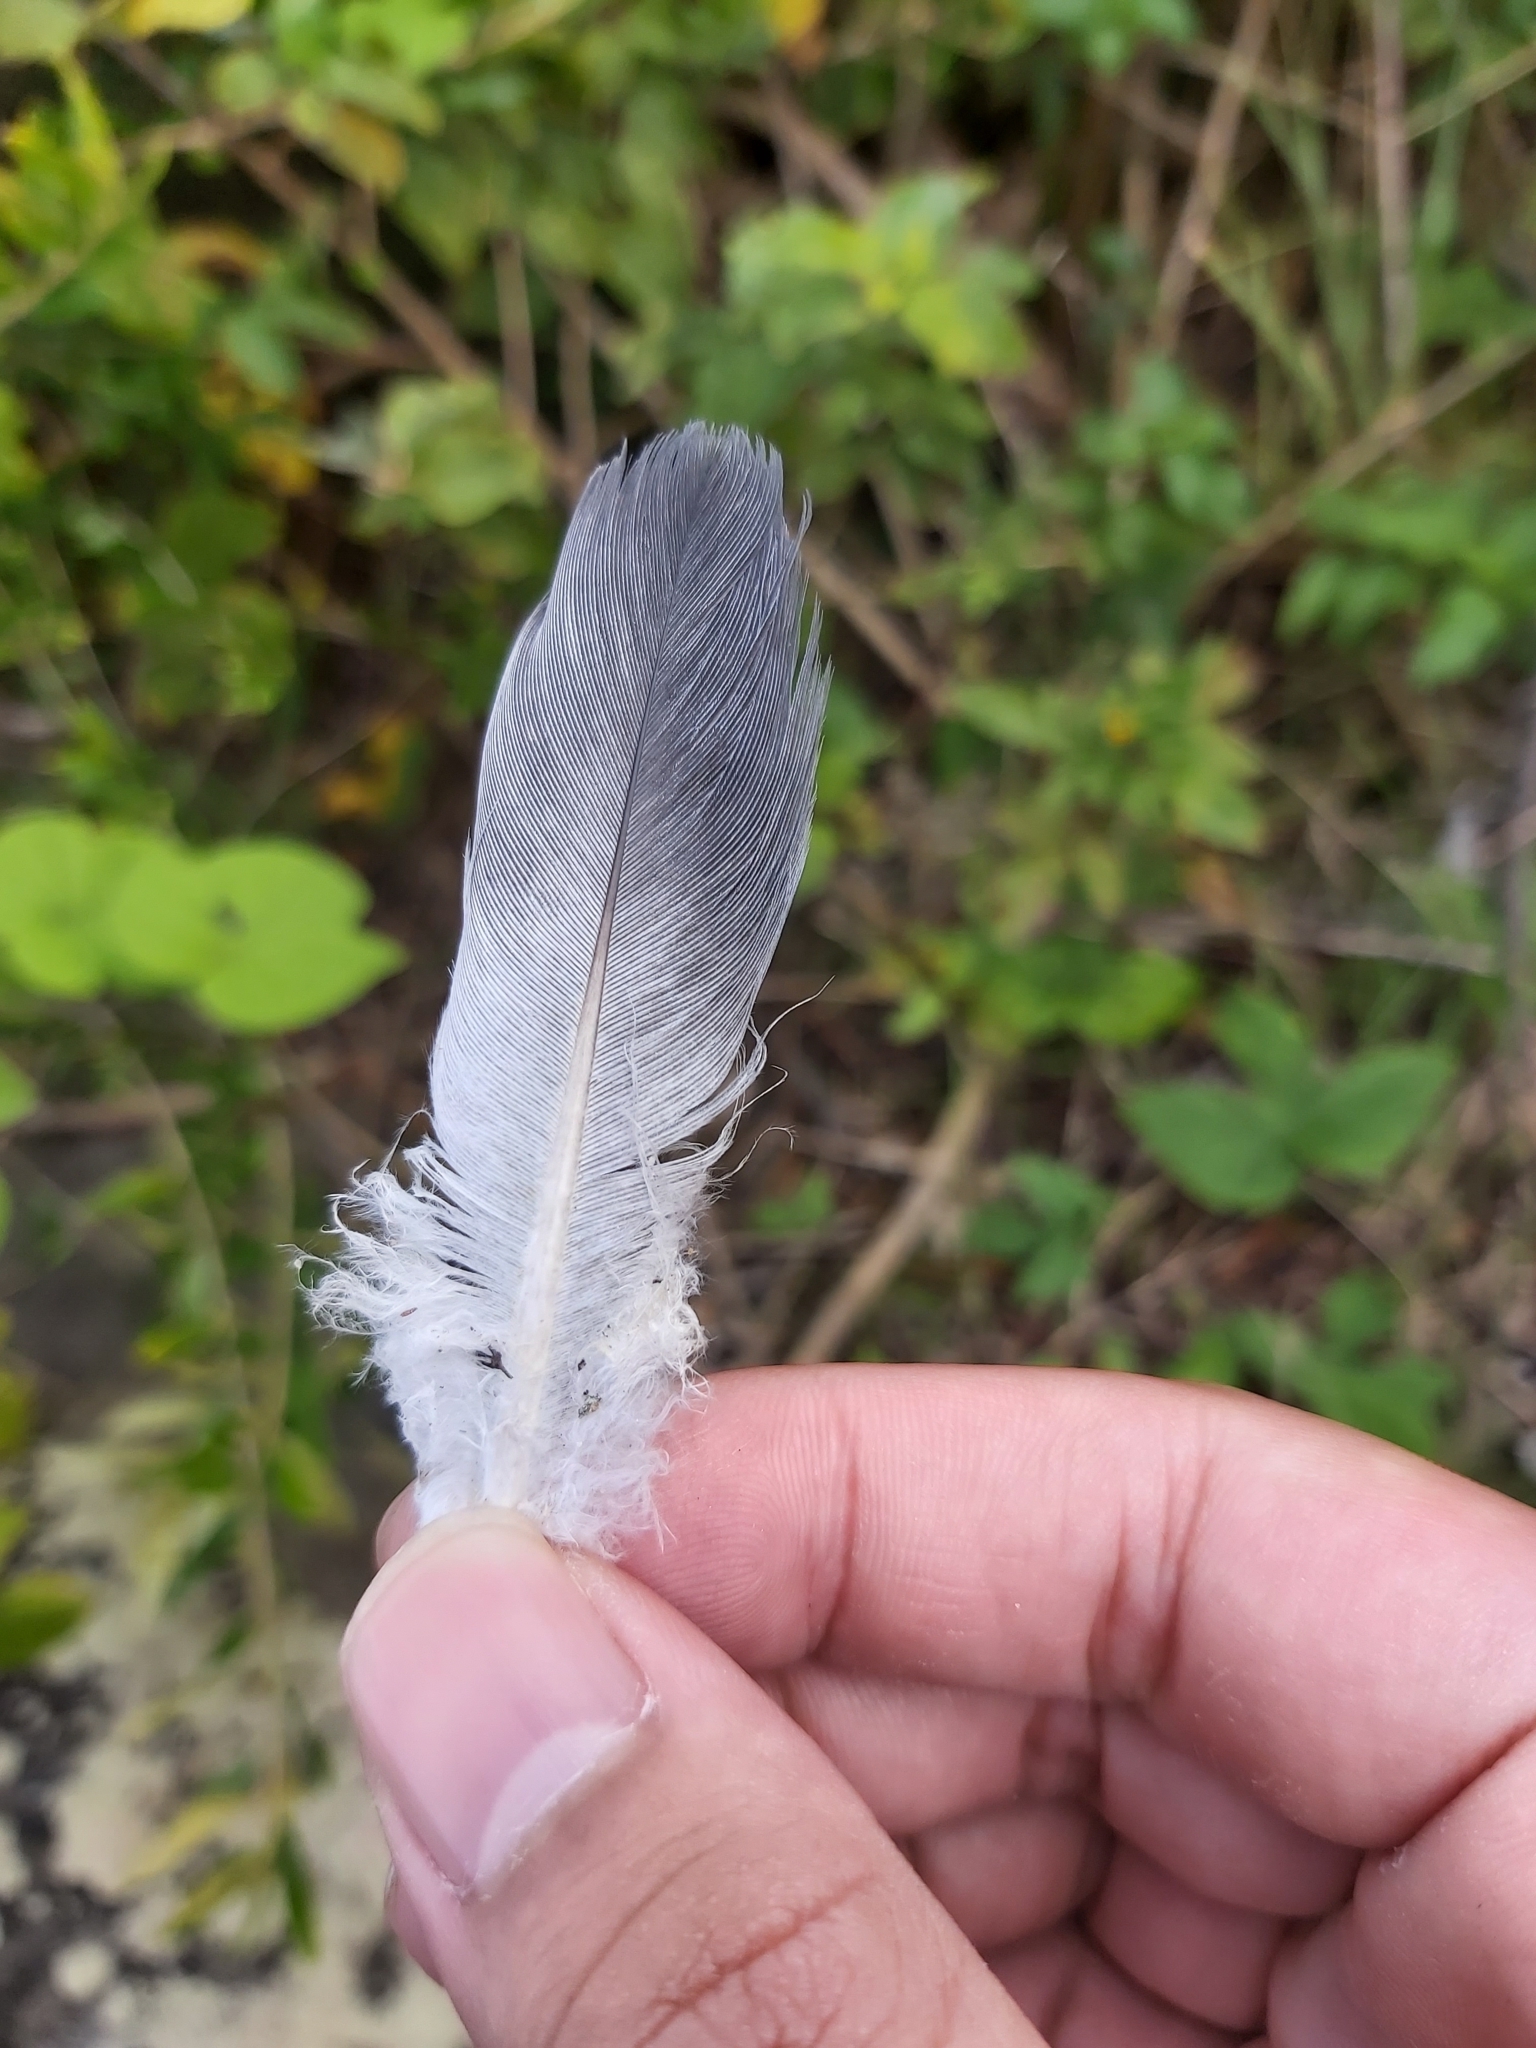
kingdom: Animalia
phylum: Chordata
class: Aves
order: Columbiformes
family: Columbidae
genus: Columba
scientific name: Columba livia
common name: Rock pigeon
